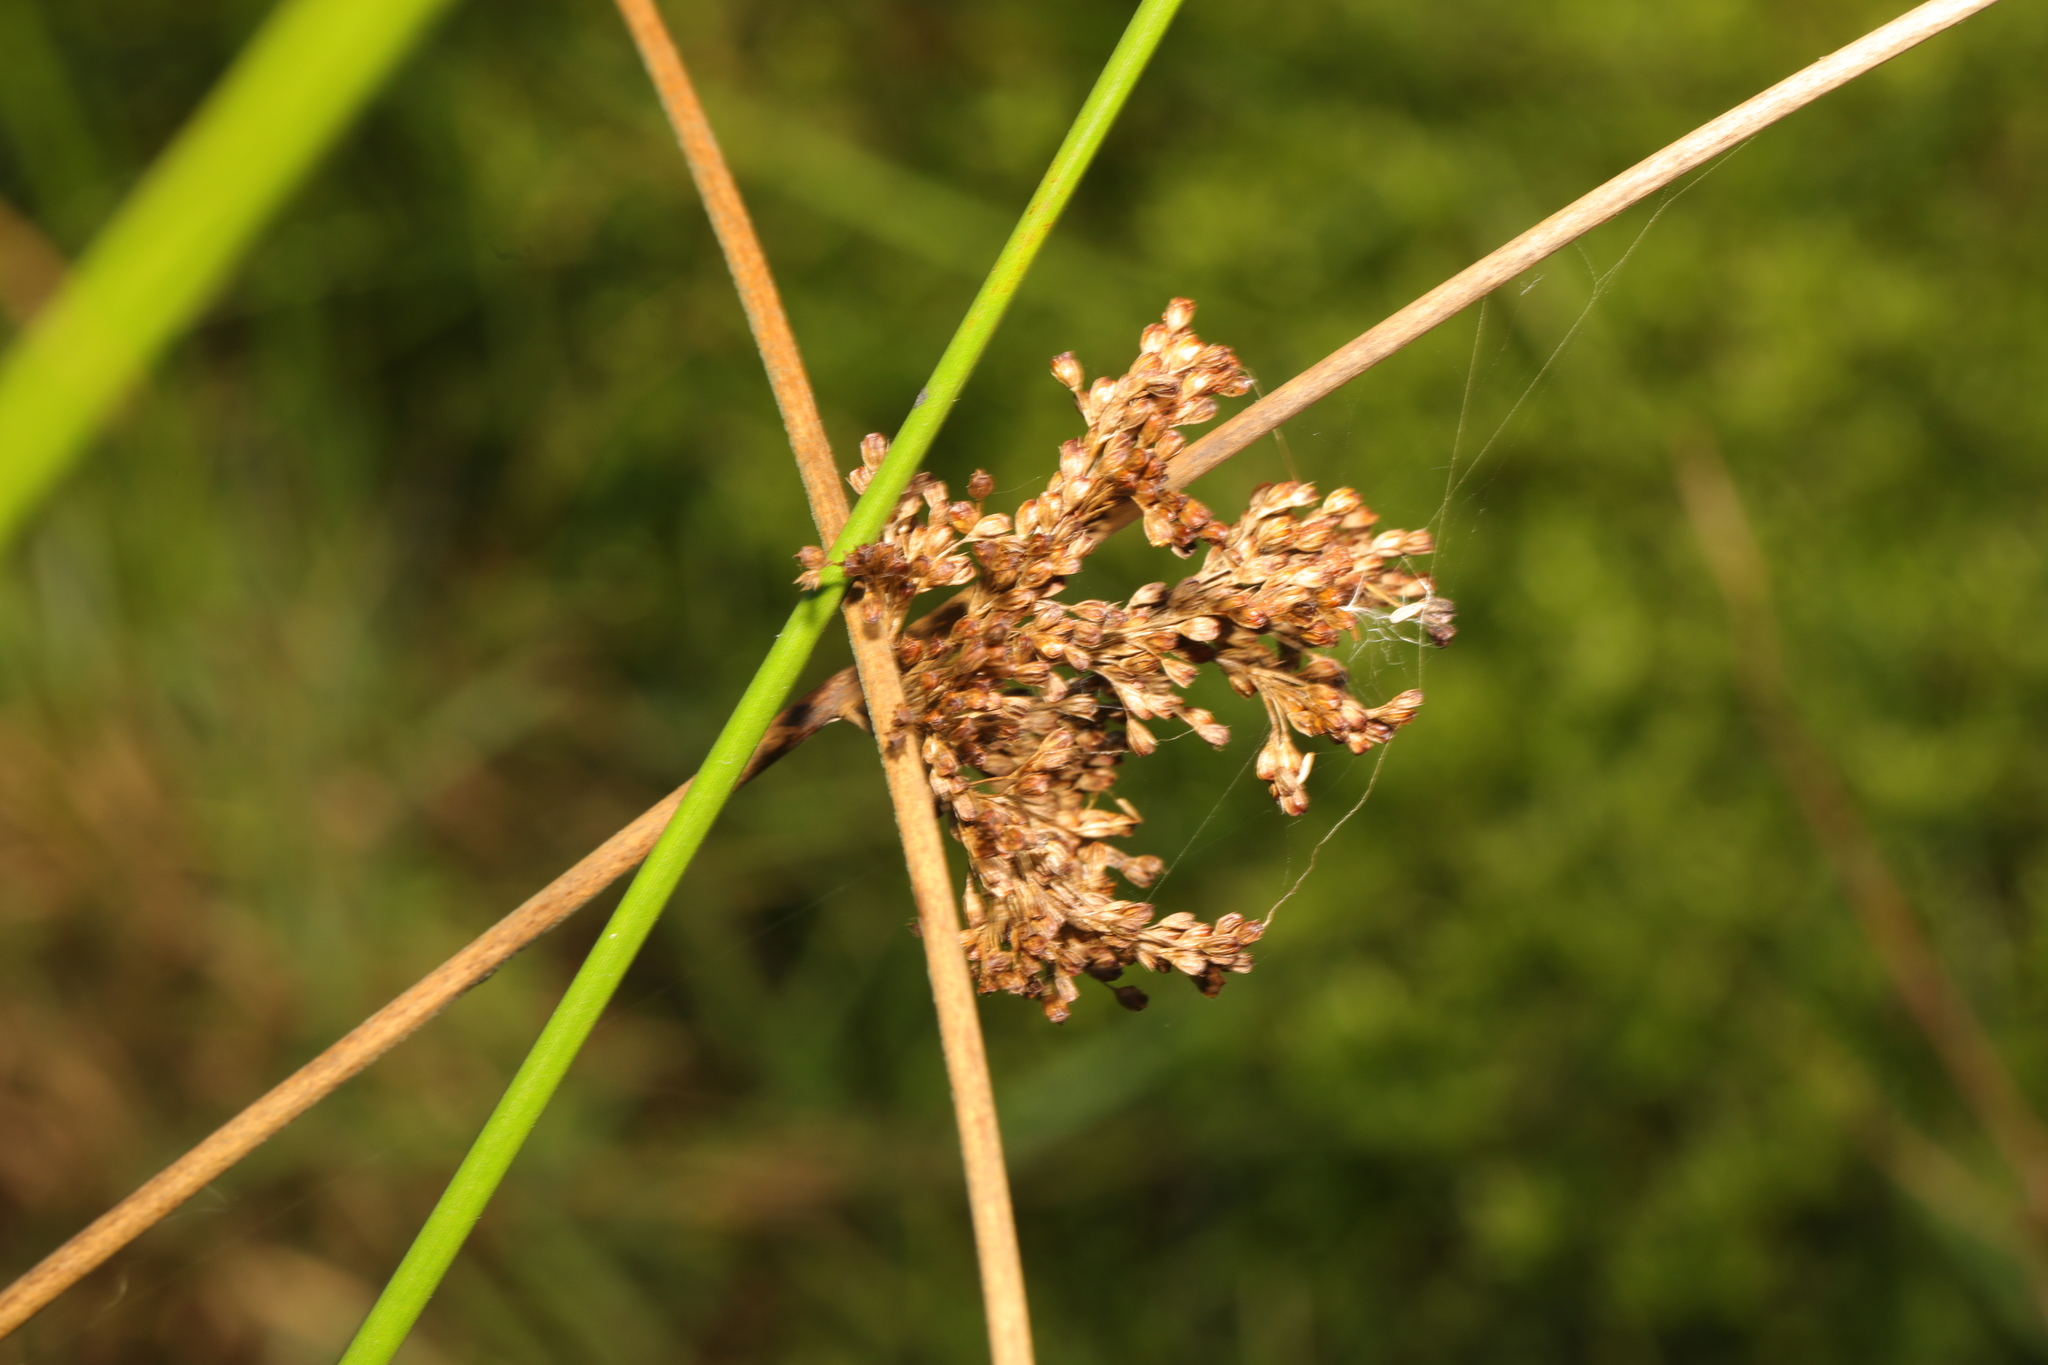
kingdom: Plantae
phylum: Tracheophyta
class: Liliopsida
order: Poales
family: Juncaceae
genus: Juncus
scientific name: Juncus effusus
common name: Soft rush
